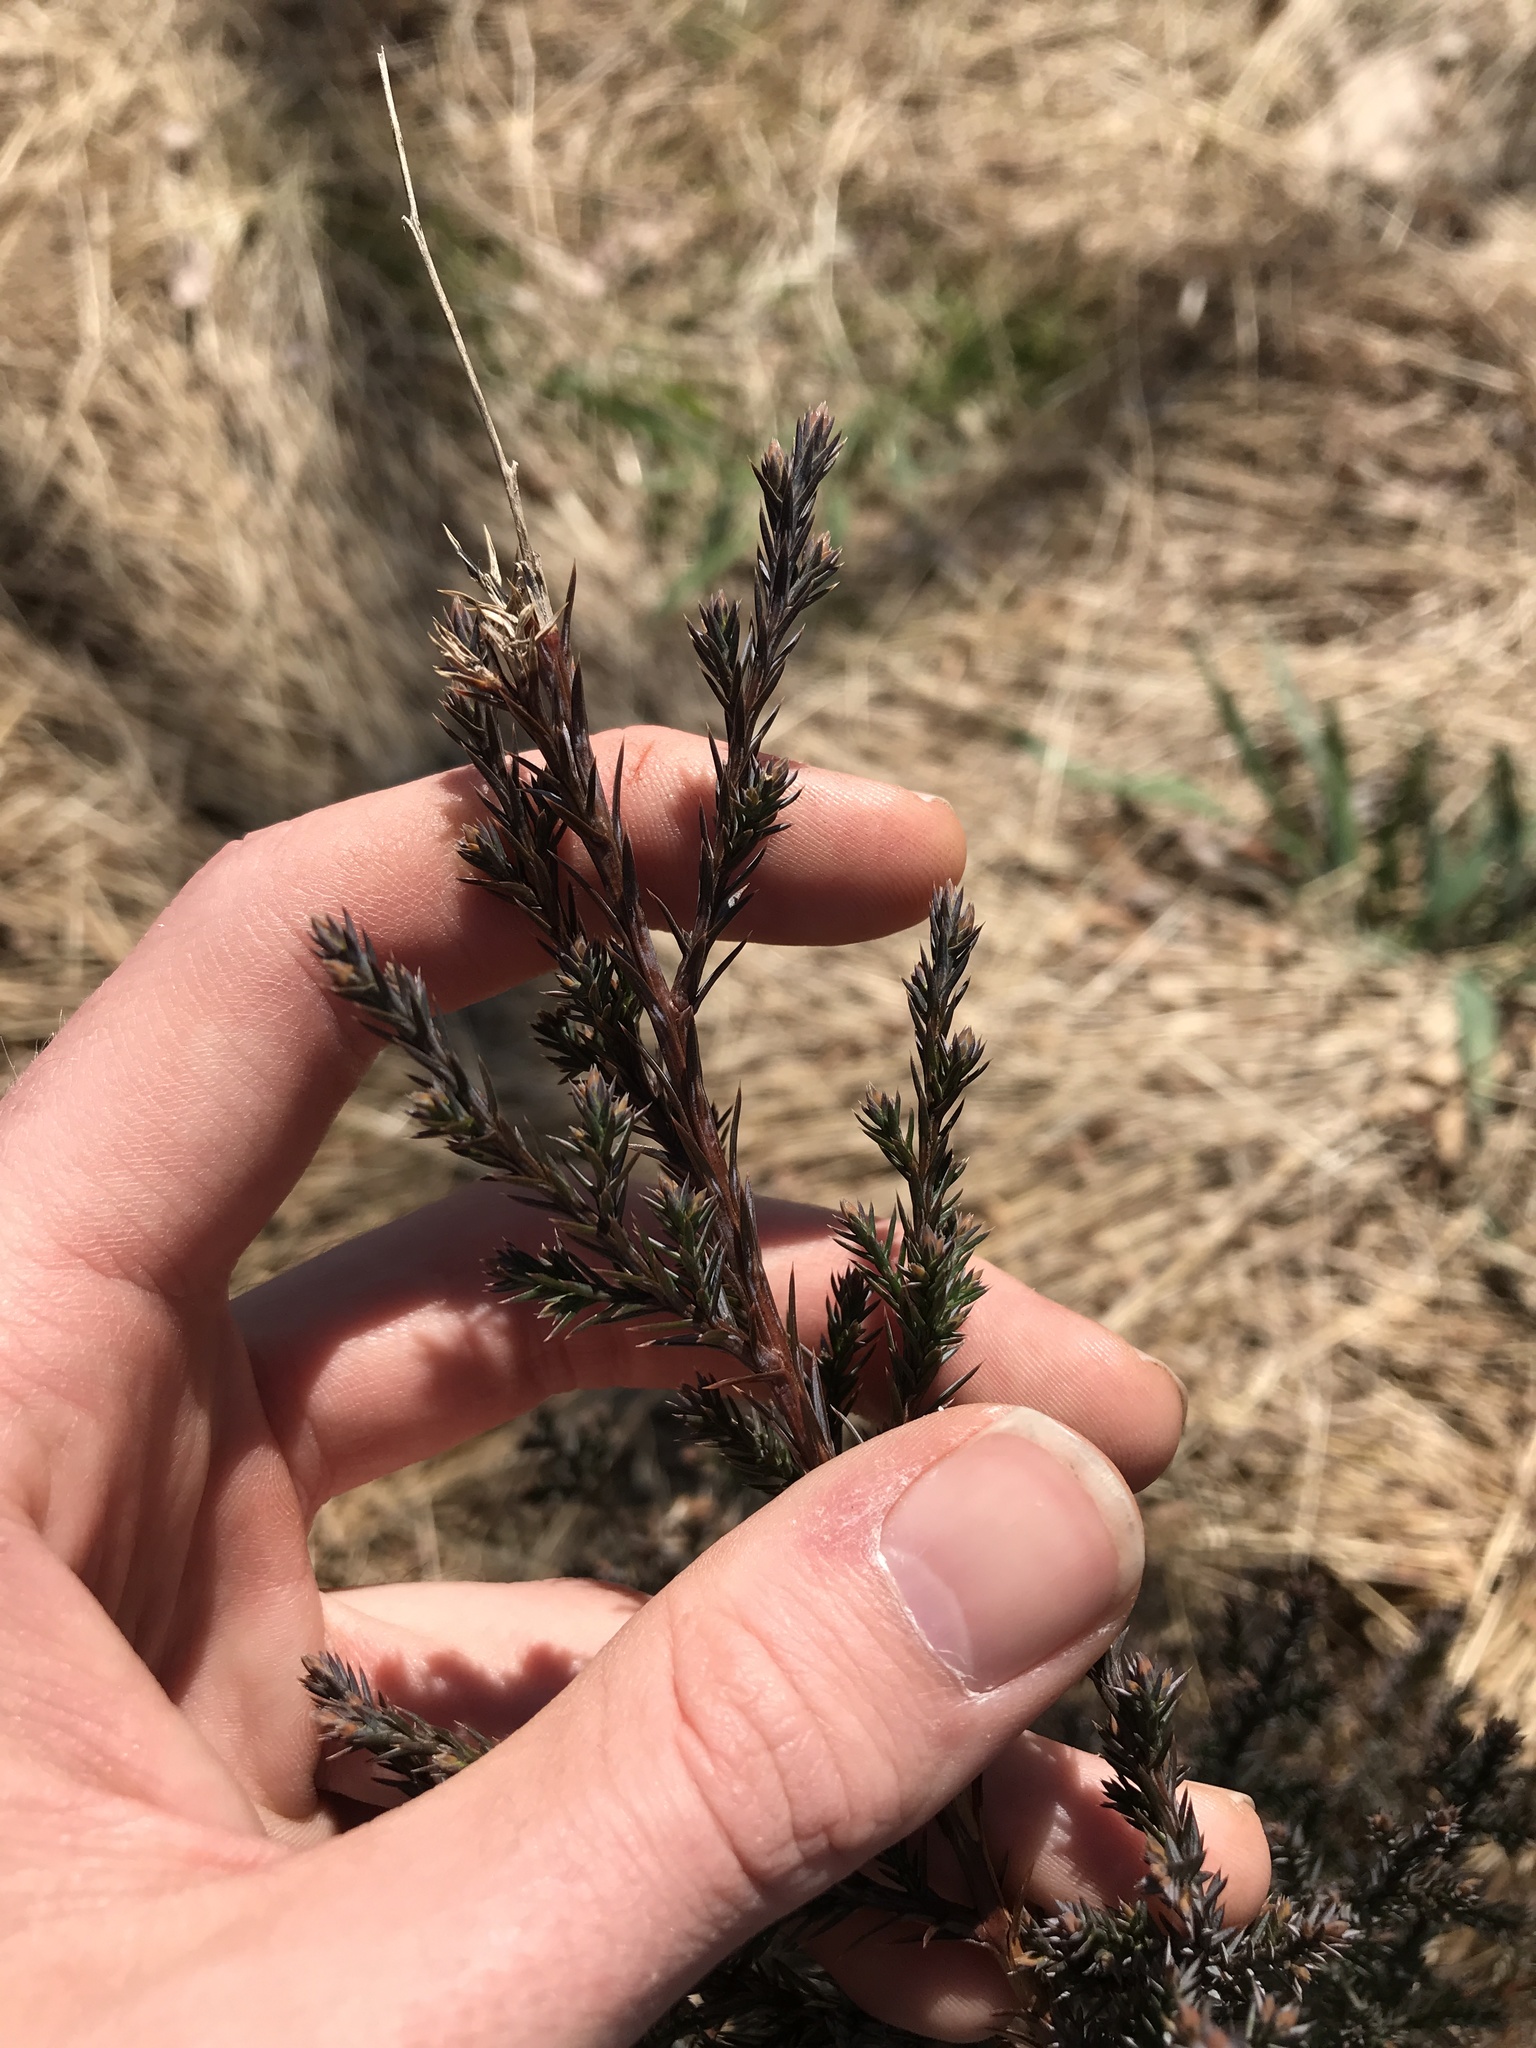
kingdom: Plantae
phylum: Tracheophyta
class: Pinopsida
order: Pinales
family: Cupressaceae
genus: Juniperus
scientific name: Juniperus virginiana
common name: Red juniper
